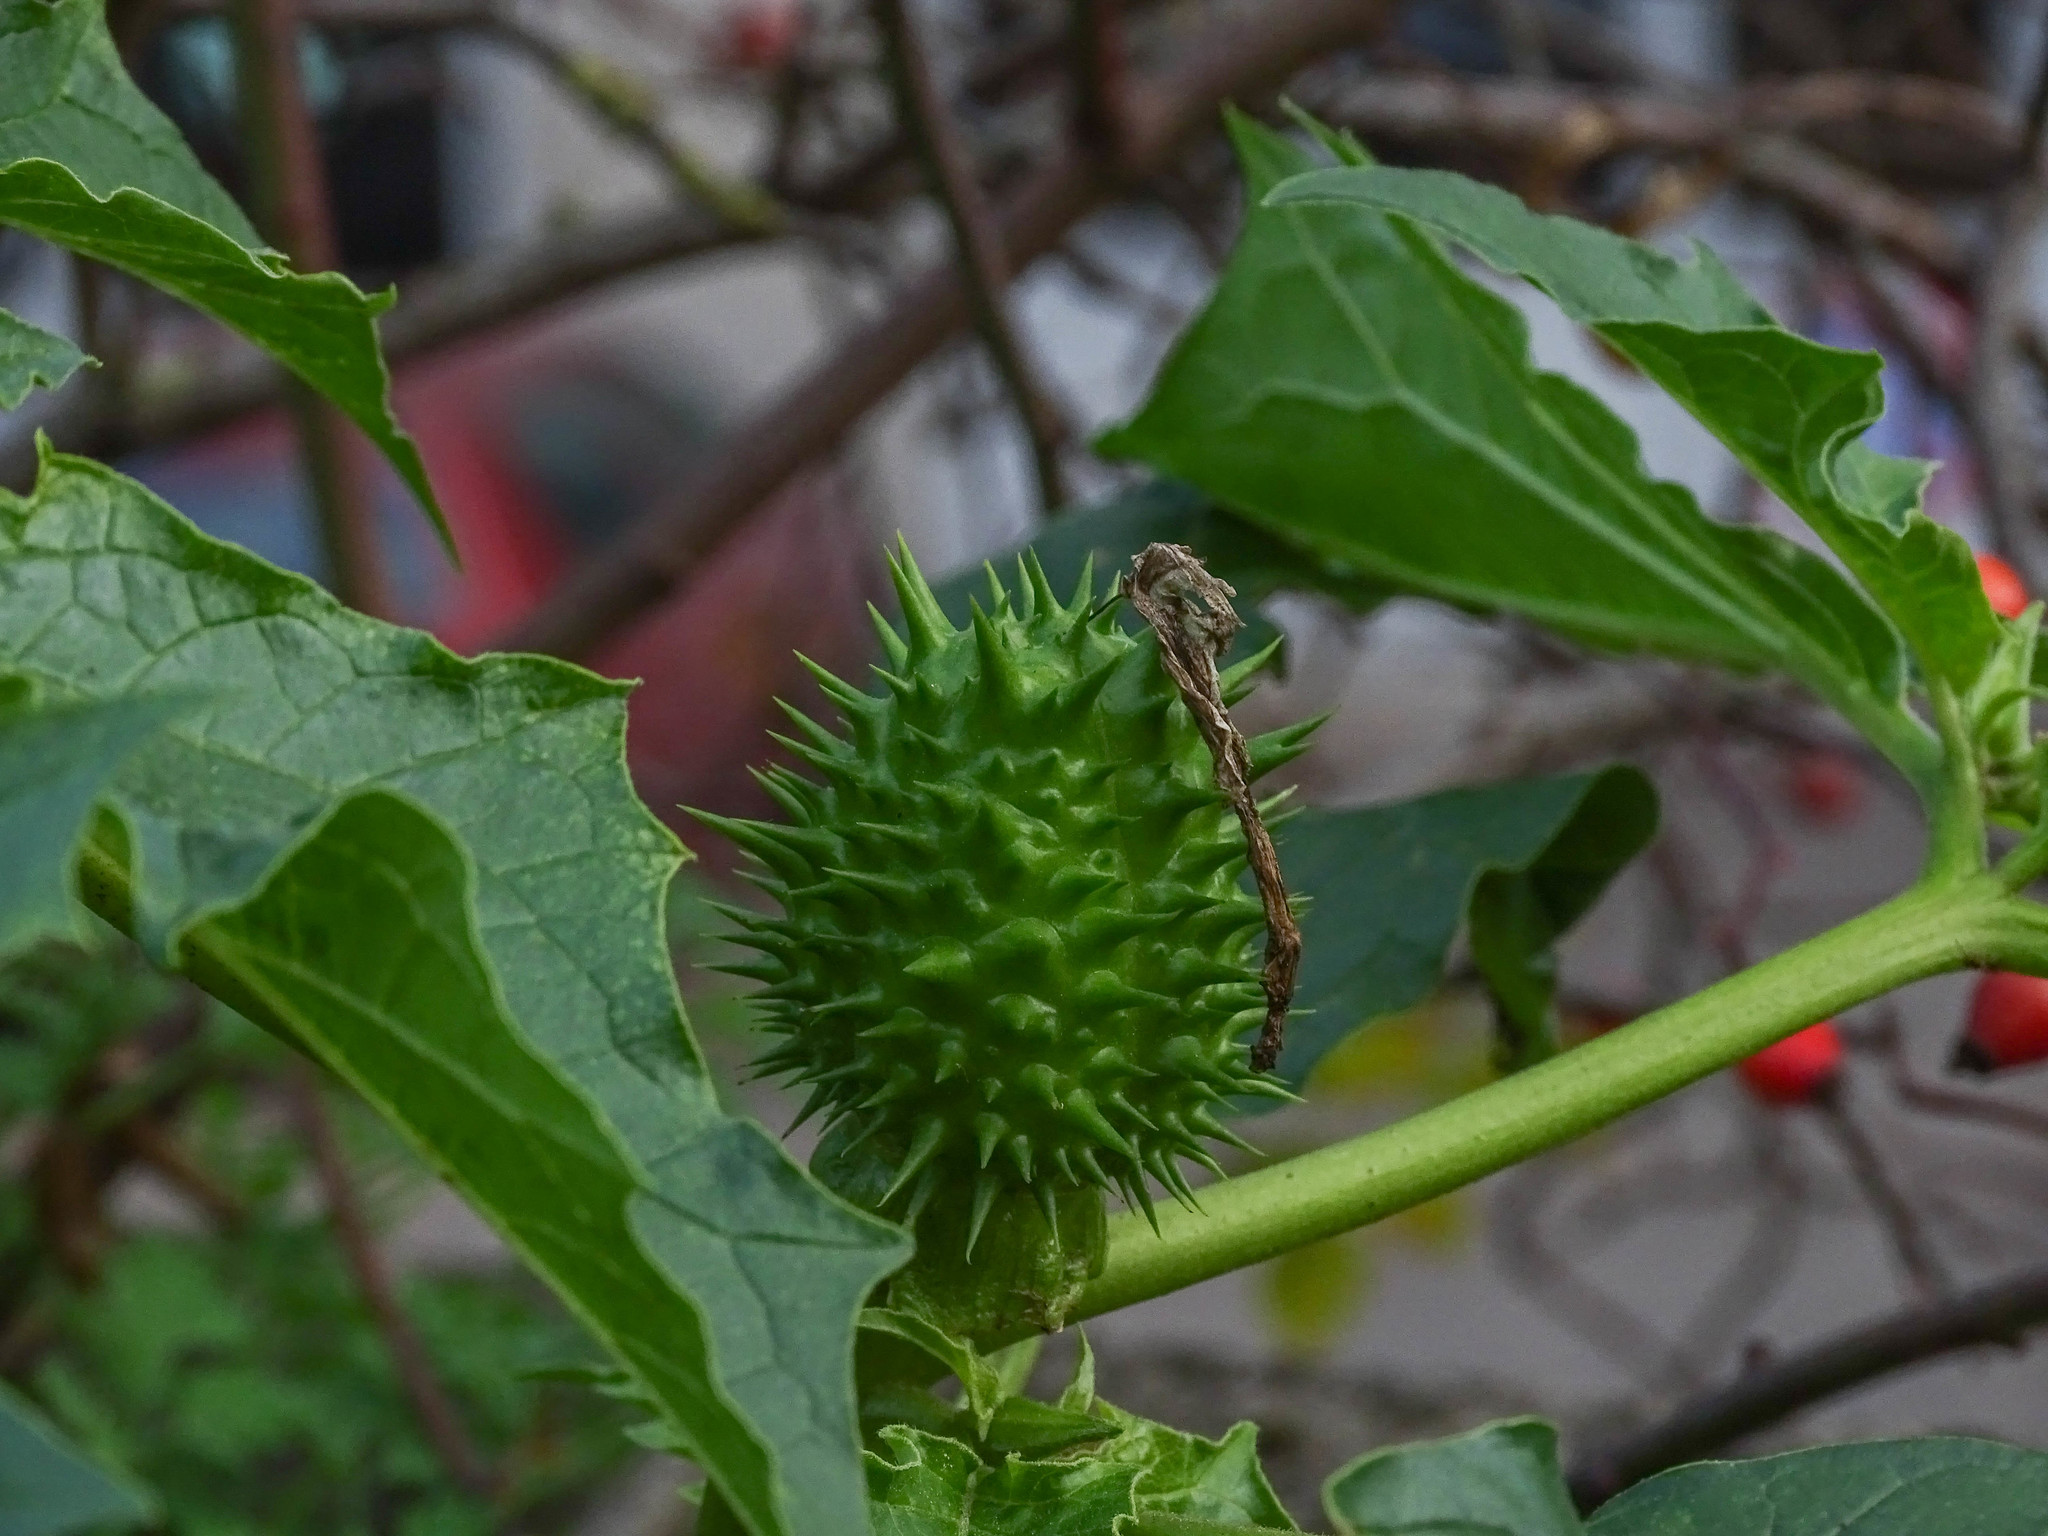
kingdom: Plantae
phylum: Tracheophyta
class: Magnoliopsida
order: Solanales
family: Solanaceae
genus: Datura
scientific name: Datura stramonium
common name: Thorn-apple
